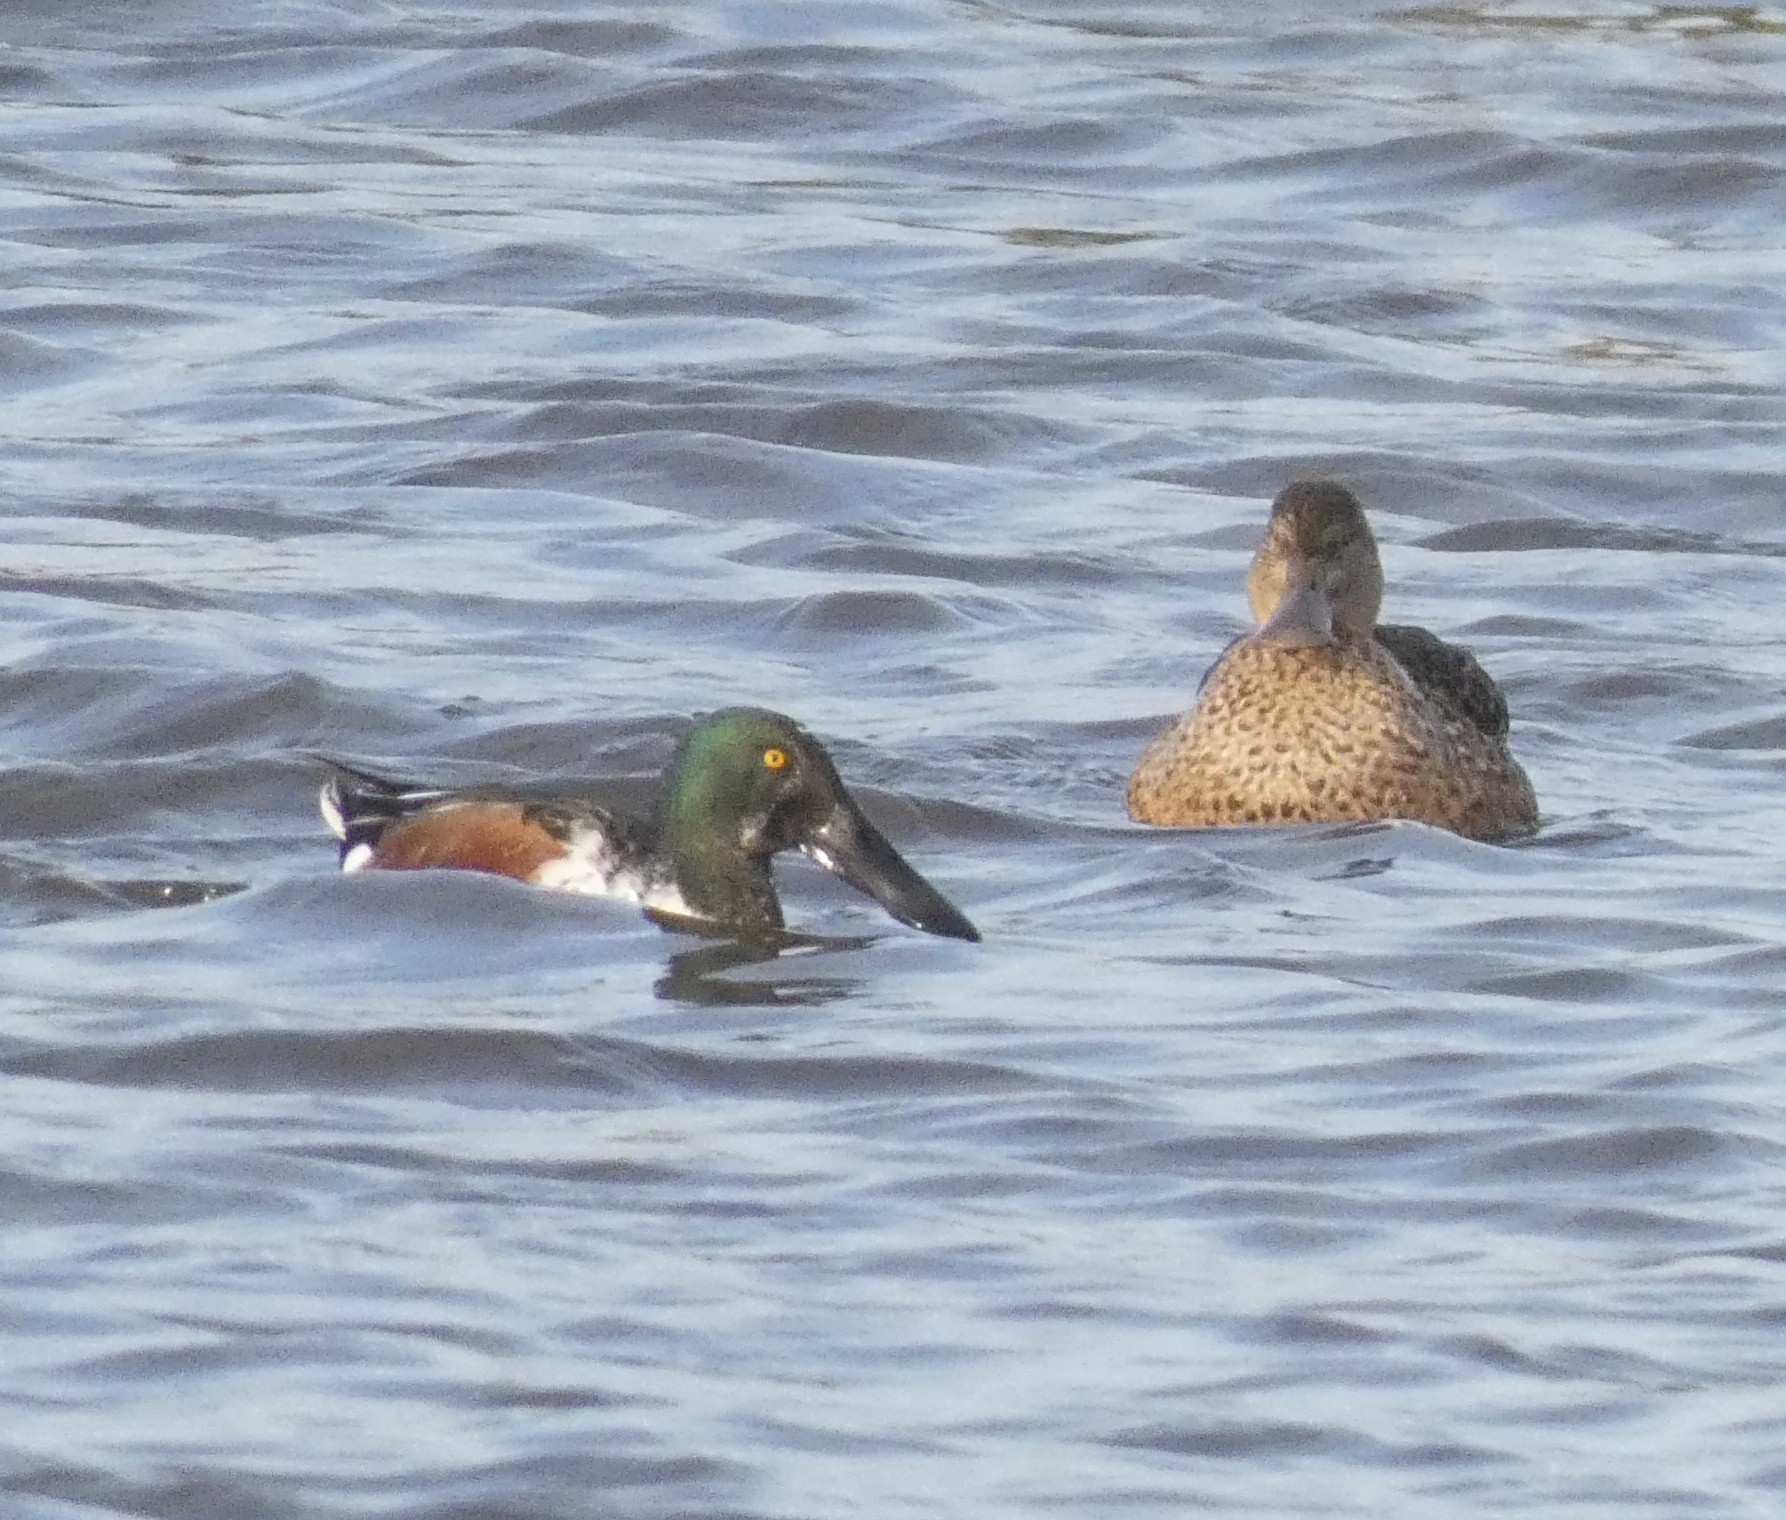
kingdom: Animalia
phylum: Chordata
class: Aves
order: Anseriformes
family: Anatidae
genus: Spatula
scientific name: Spatula clypeata
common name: Northern shoveler
